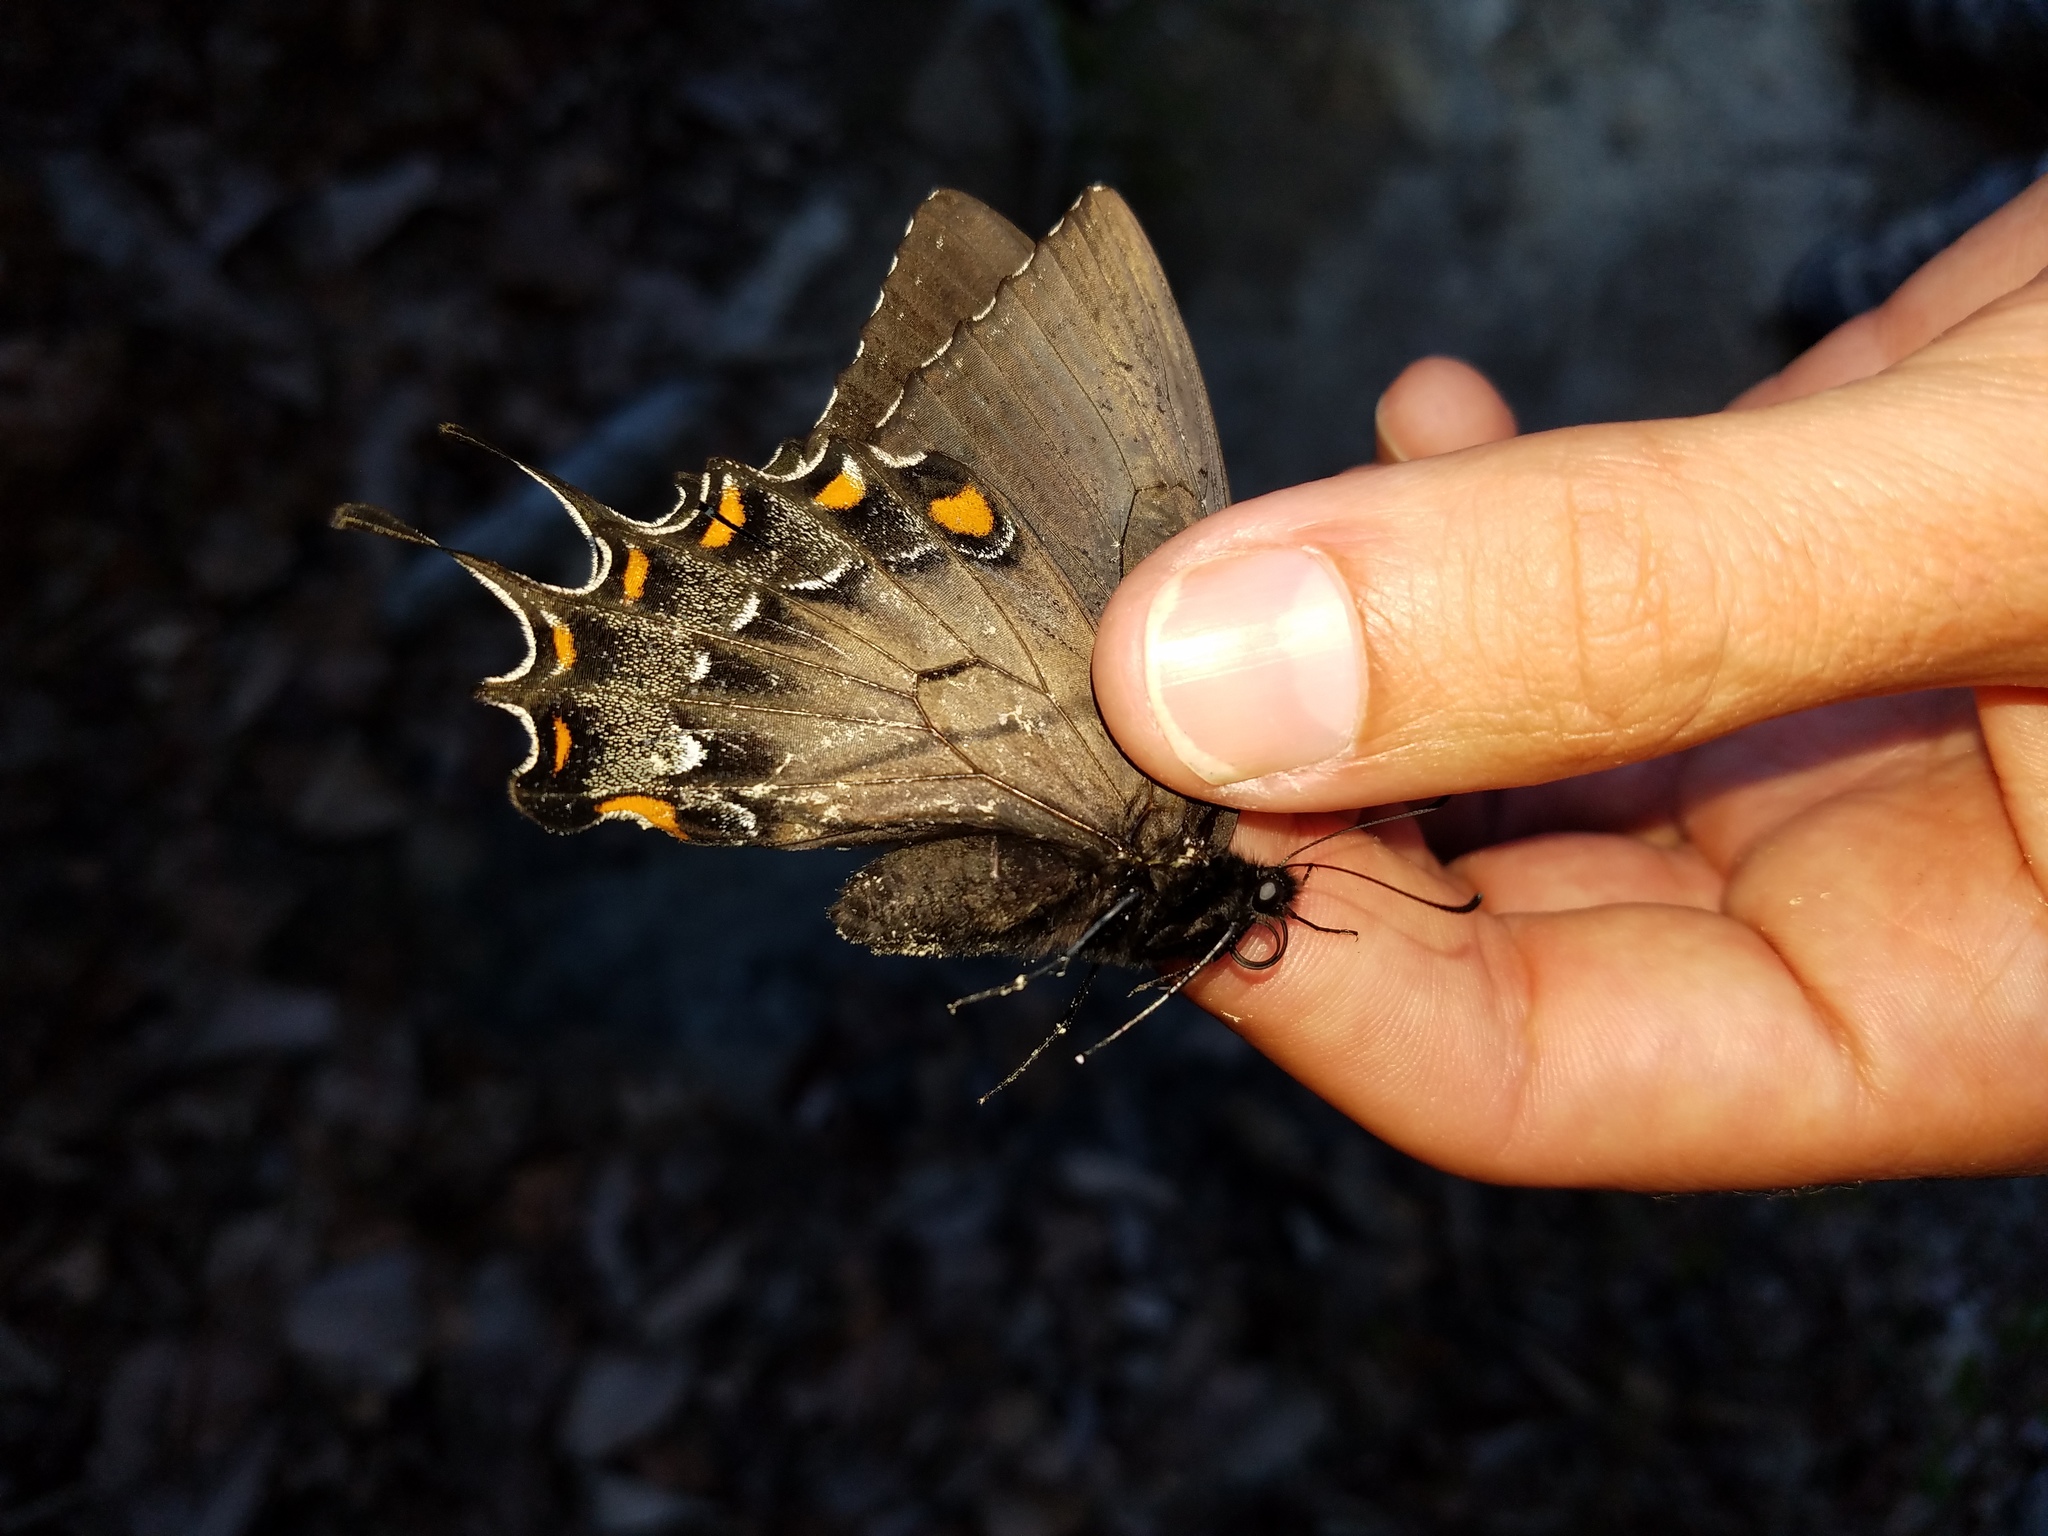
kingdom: Animalia
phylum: Arthropoda
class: Insecta
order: Lepidoptera
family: Papilionidae
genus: Papilio
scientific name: Papilio glaucus
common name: Tiger swallowtail
